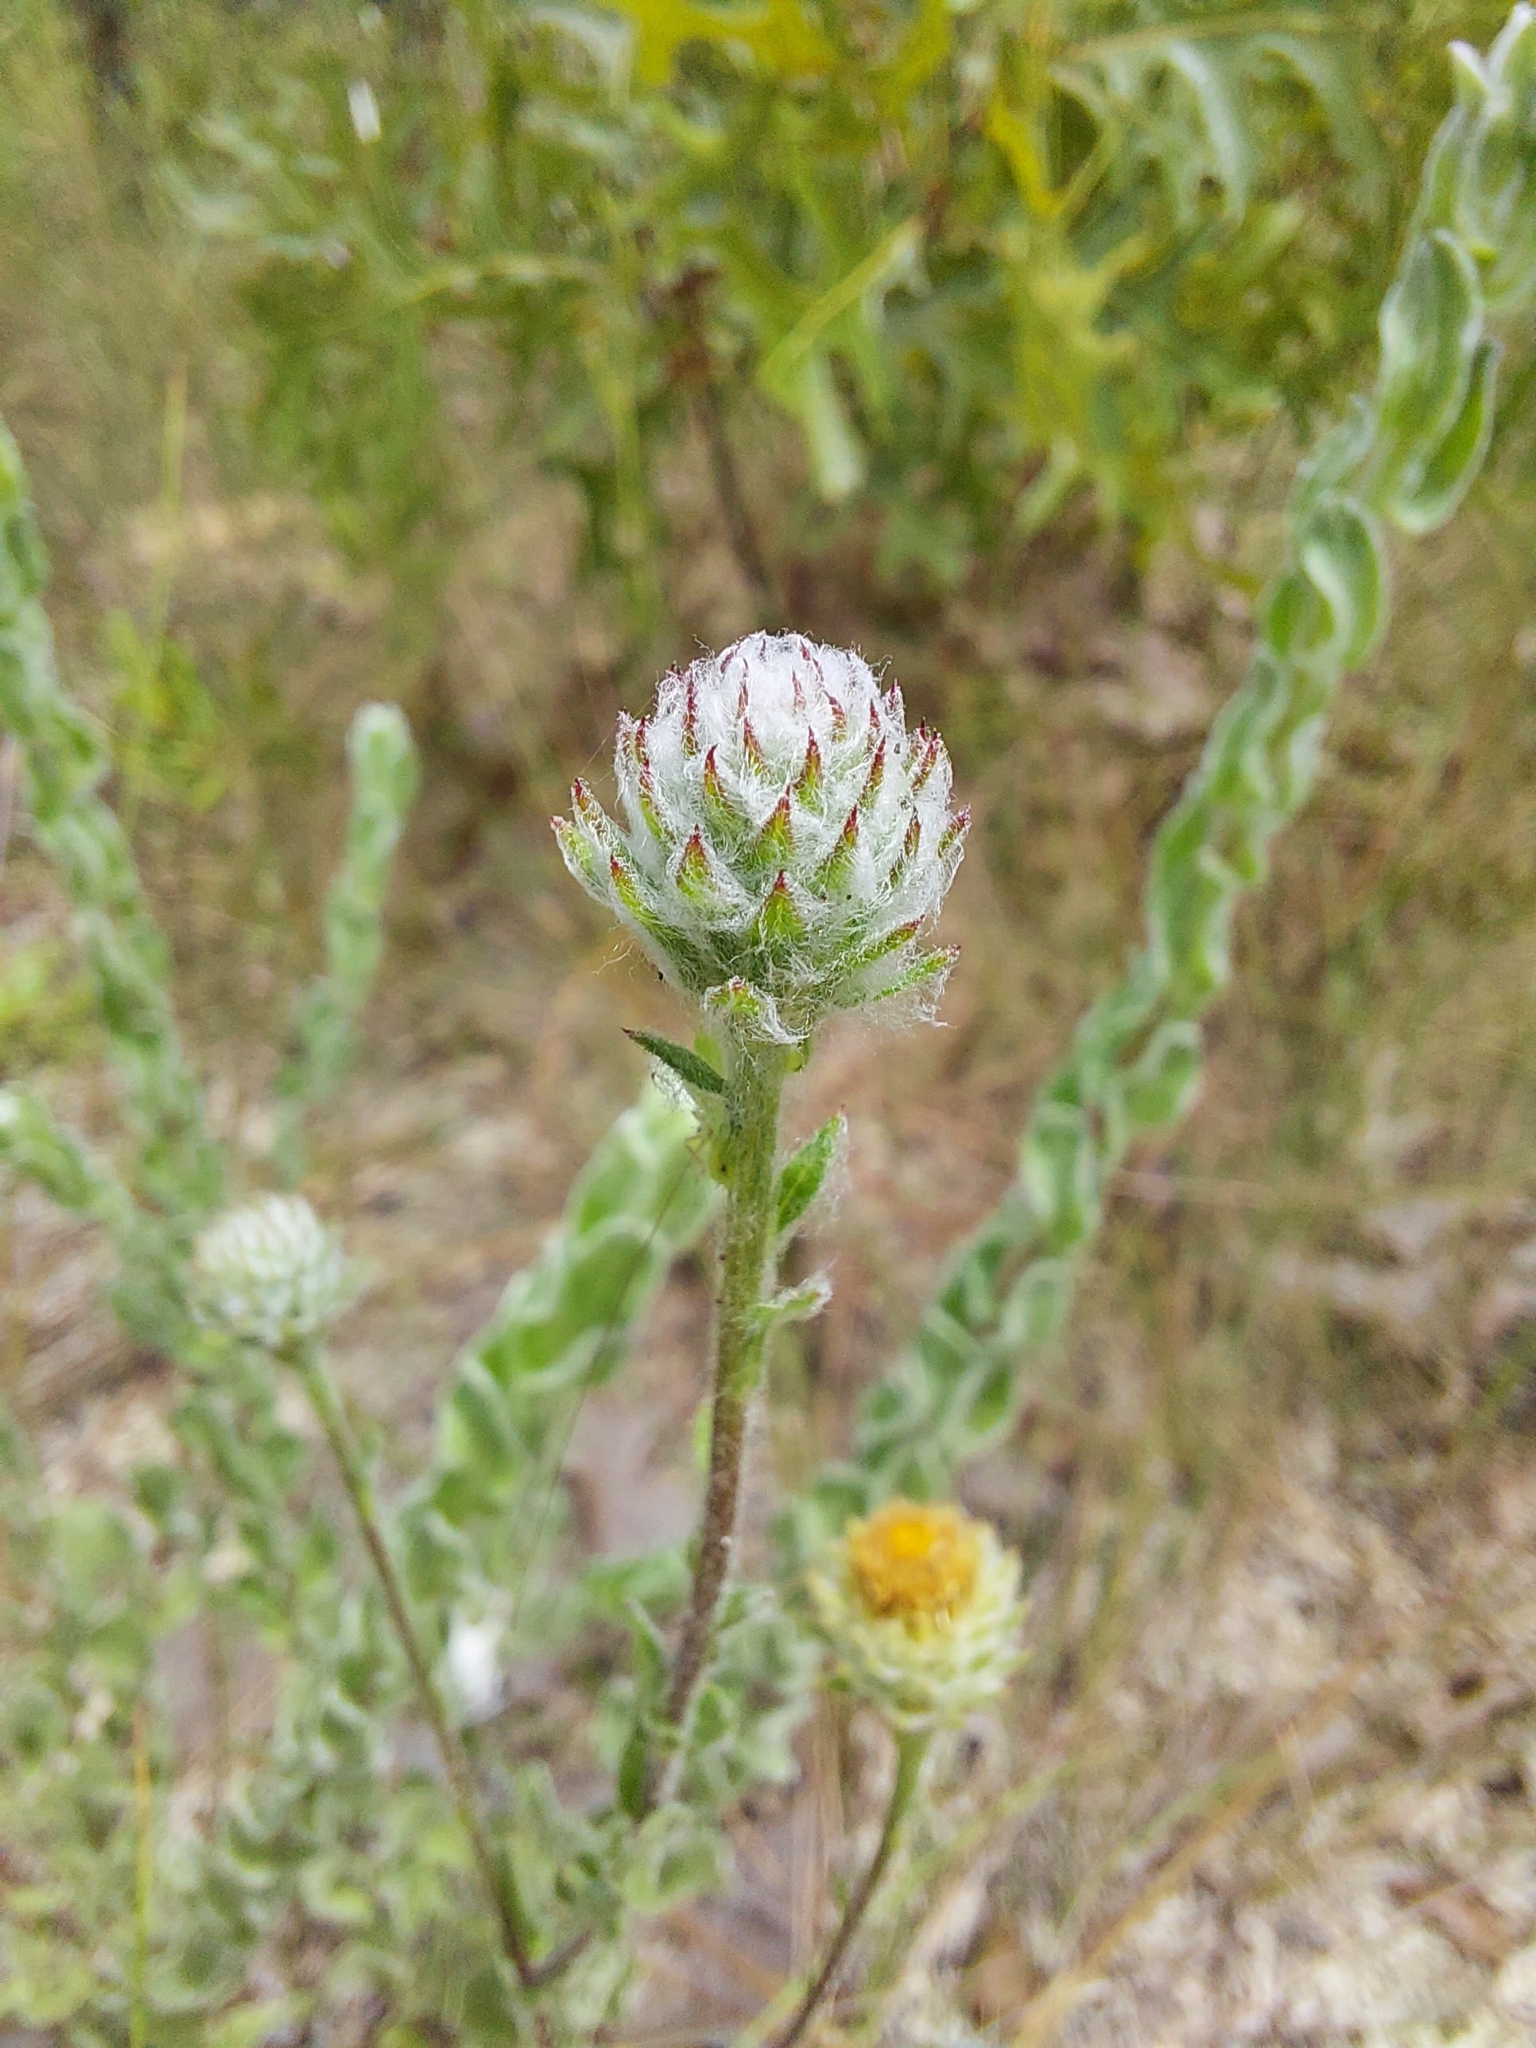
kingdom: Plantae
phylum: Tracheophyta
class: Magnoliopsida
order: Asterales
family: Asteraceae
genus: Chrysopsis
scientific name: Chrysopsis gossypina
